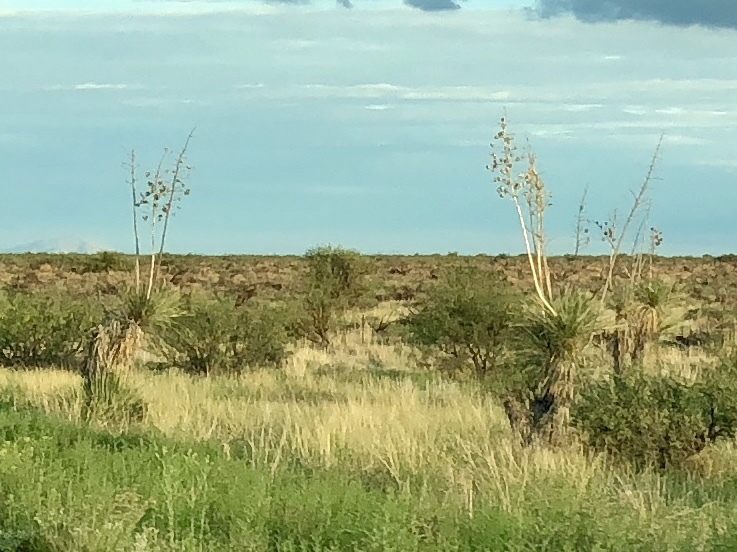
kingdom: Plantae
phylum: Tracheophyta
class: Liliopsida
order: Asparagales
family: Asparagaceae
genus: Yucca
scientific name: Yucca elata
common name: Palmella
